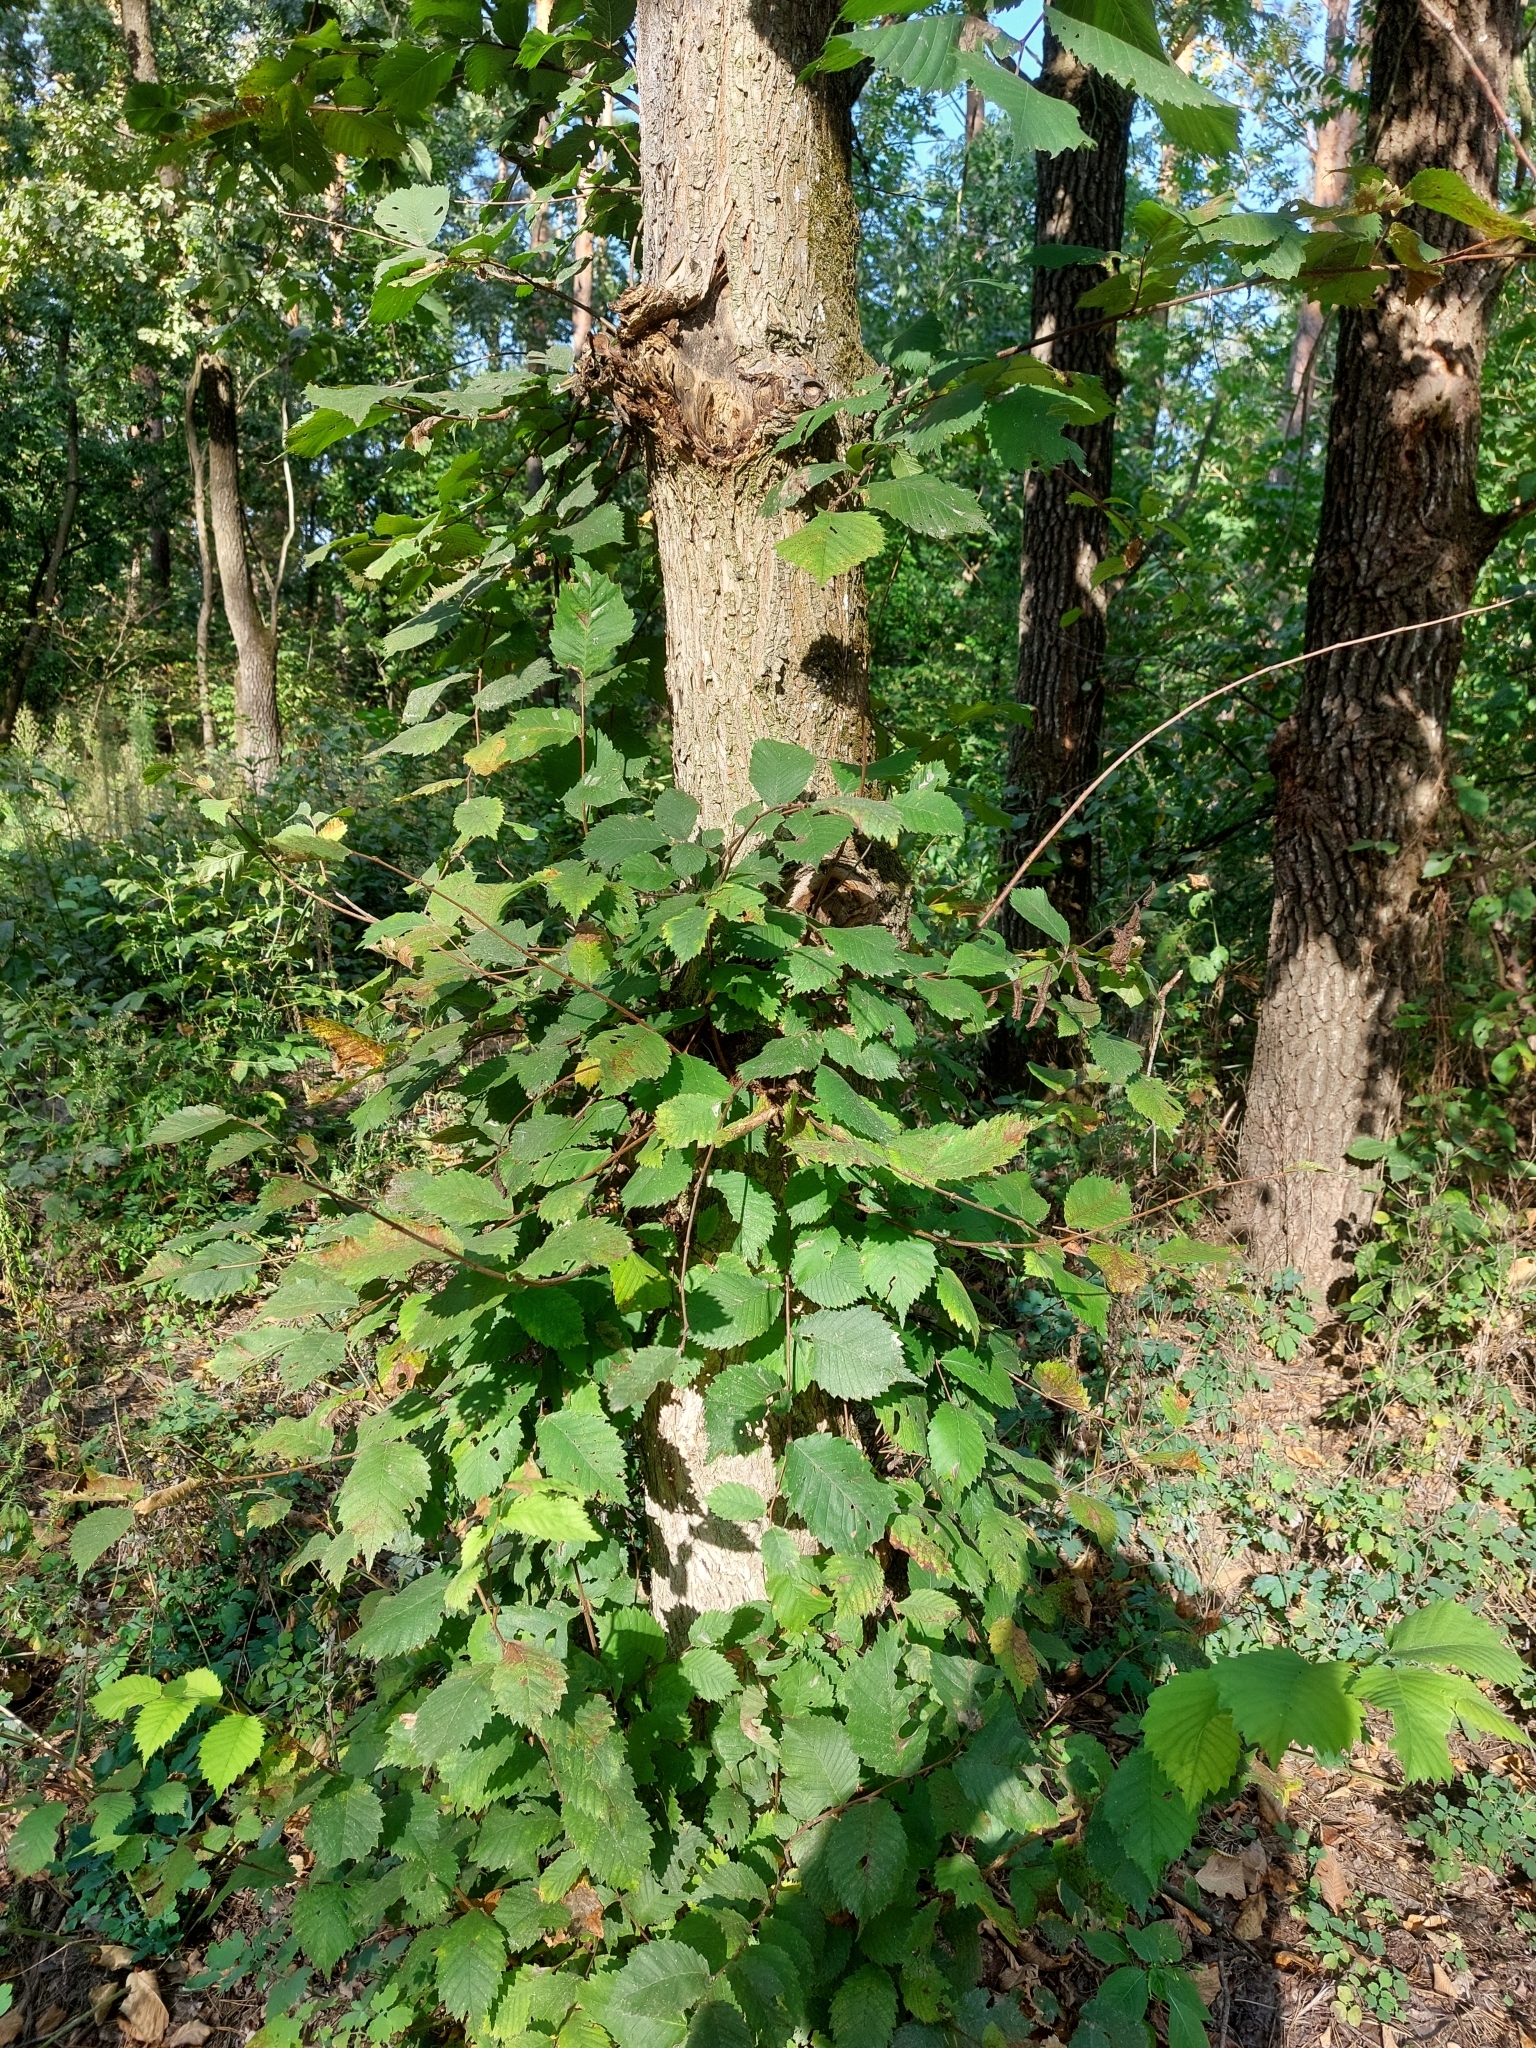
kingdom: Plantae
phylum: Tracheophyta
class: Magnoliopsida
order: Rosales
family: Ulmaceae
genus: Ulmus
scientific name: Ulmus glabra
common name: Wych elm
